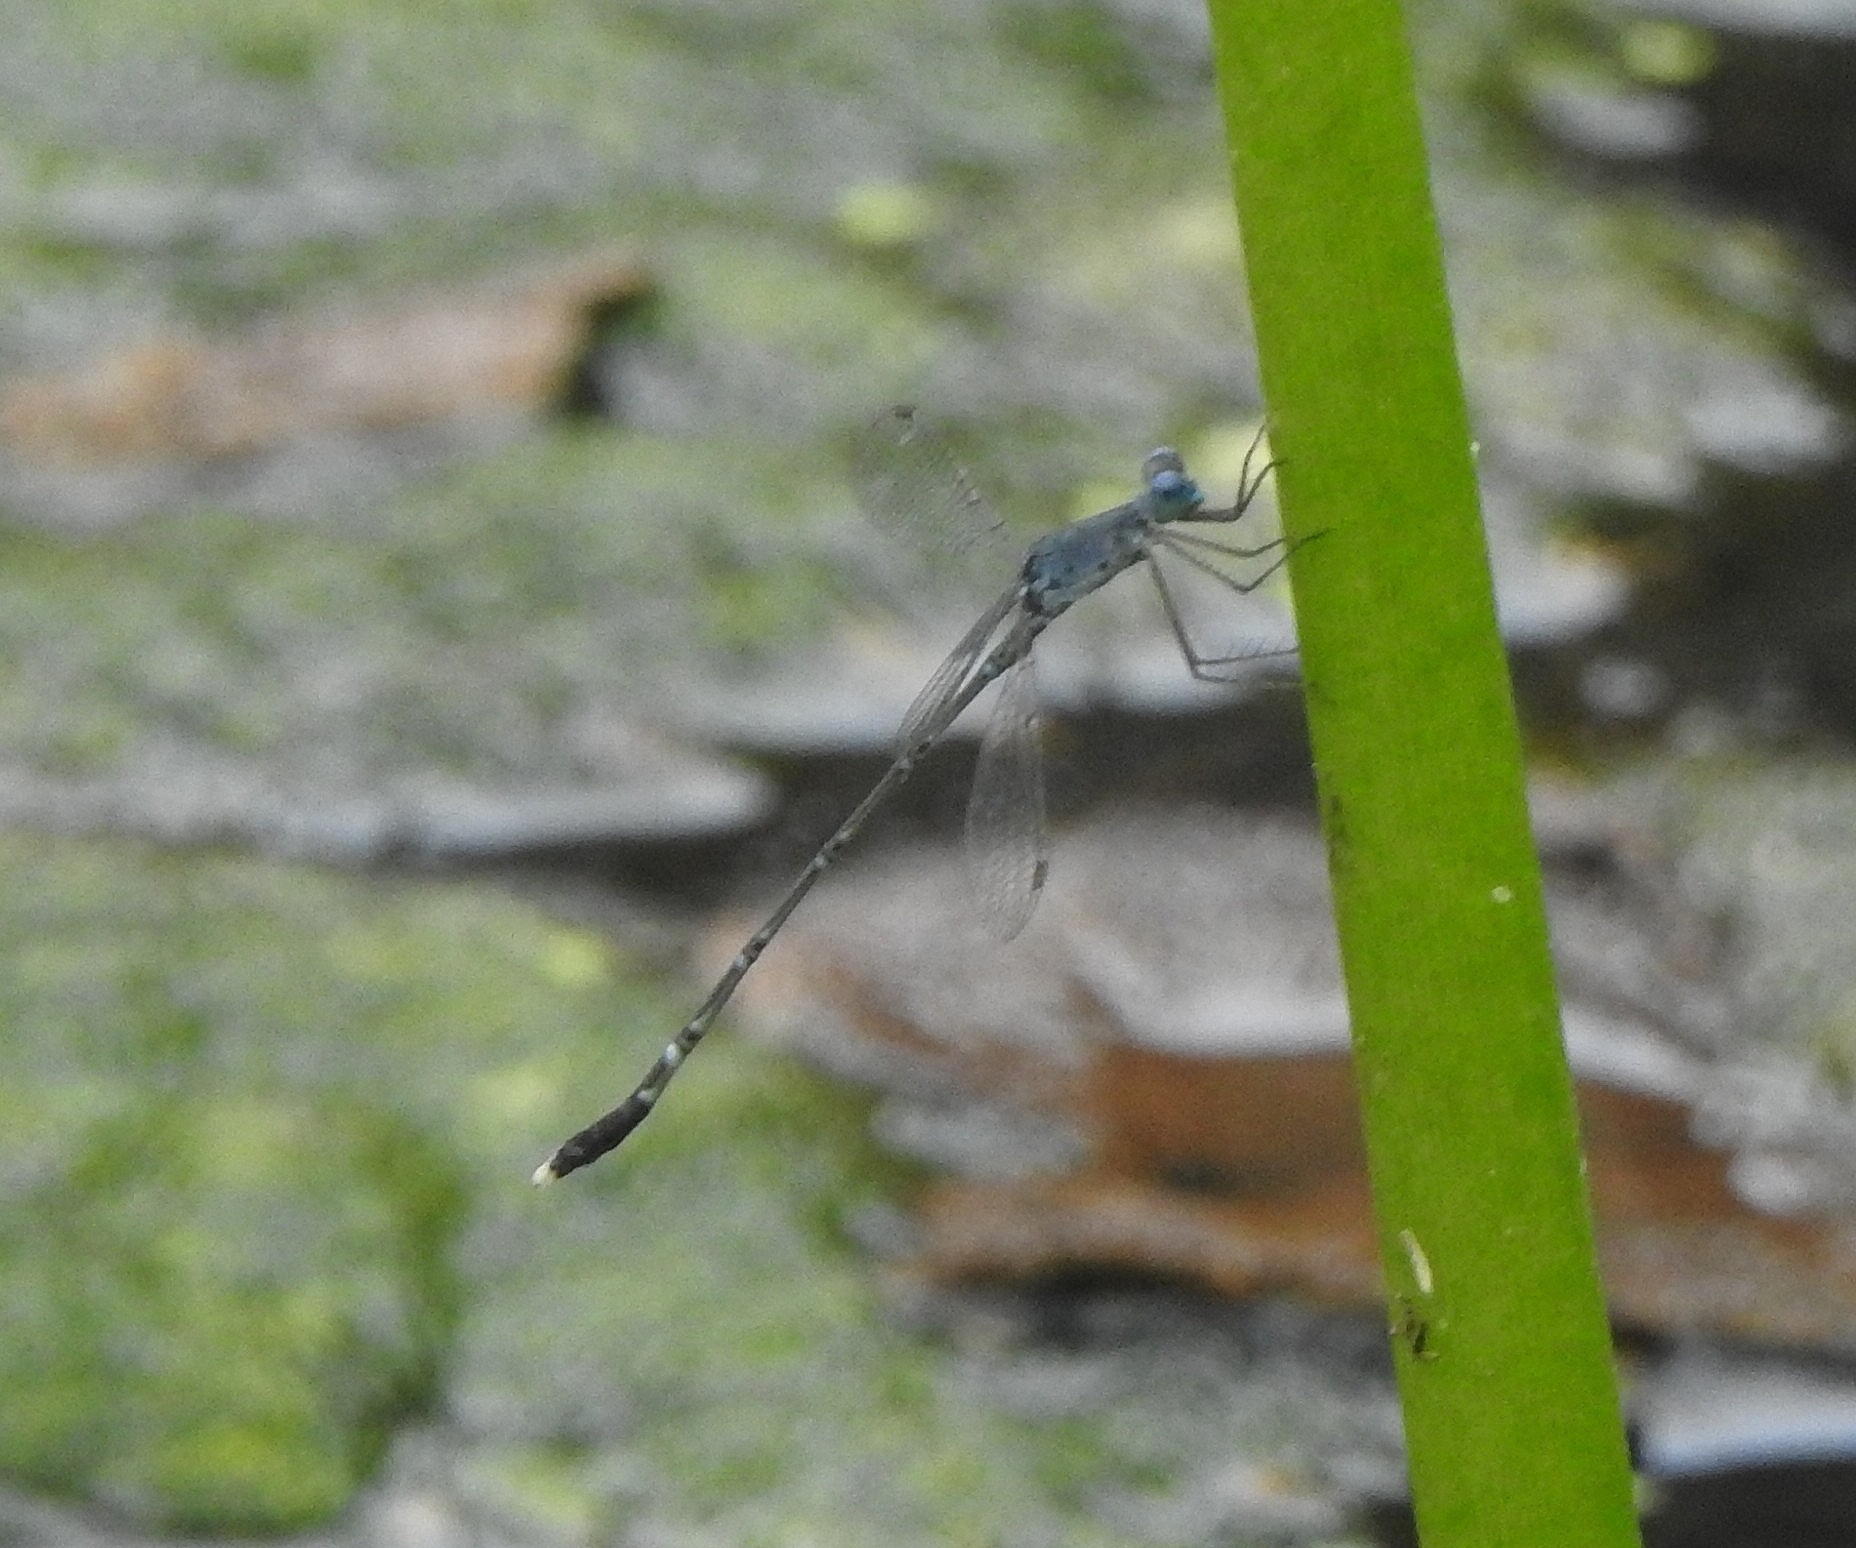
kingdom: Animalia
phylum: Arthropoda
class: Insecta
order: Odonata
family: Lestidae
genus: Lestes
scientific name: Lestes praemorsus
